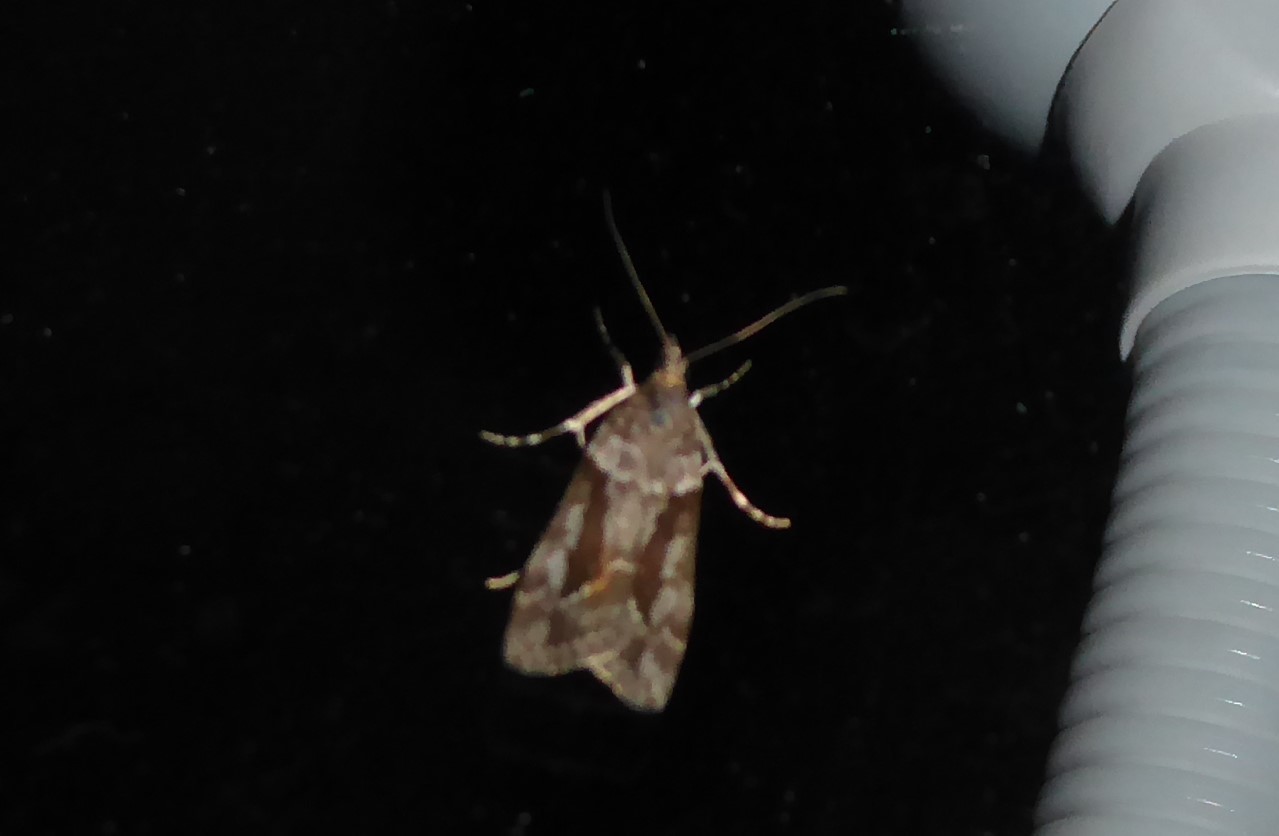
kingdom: Animalia
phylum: Arthropoda
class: Insecta
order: Lepidoptera
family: Crambidae
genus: Eudonia
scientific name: Eudonia submarginalis
